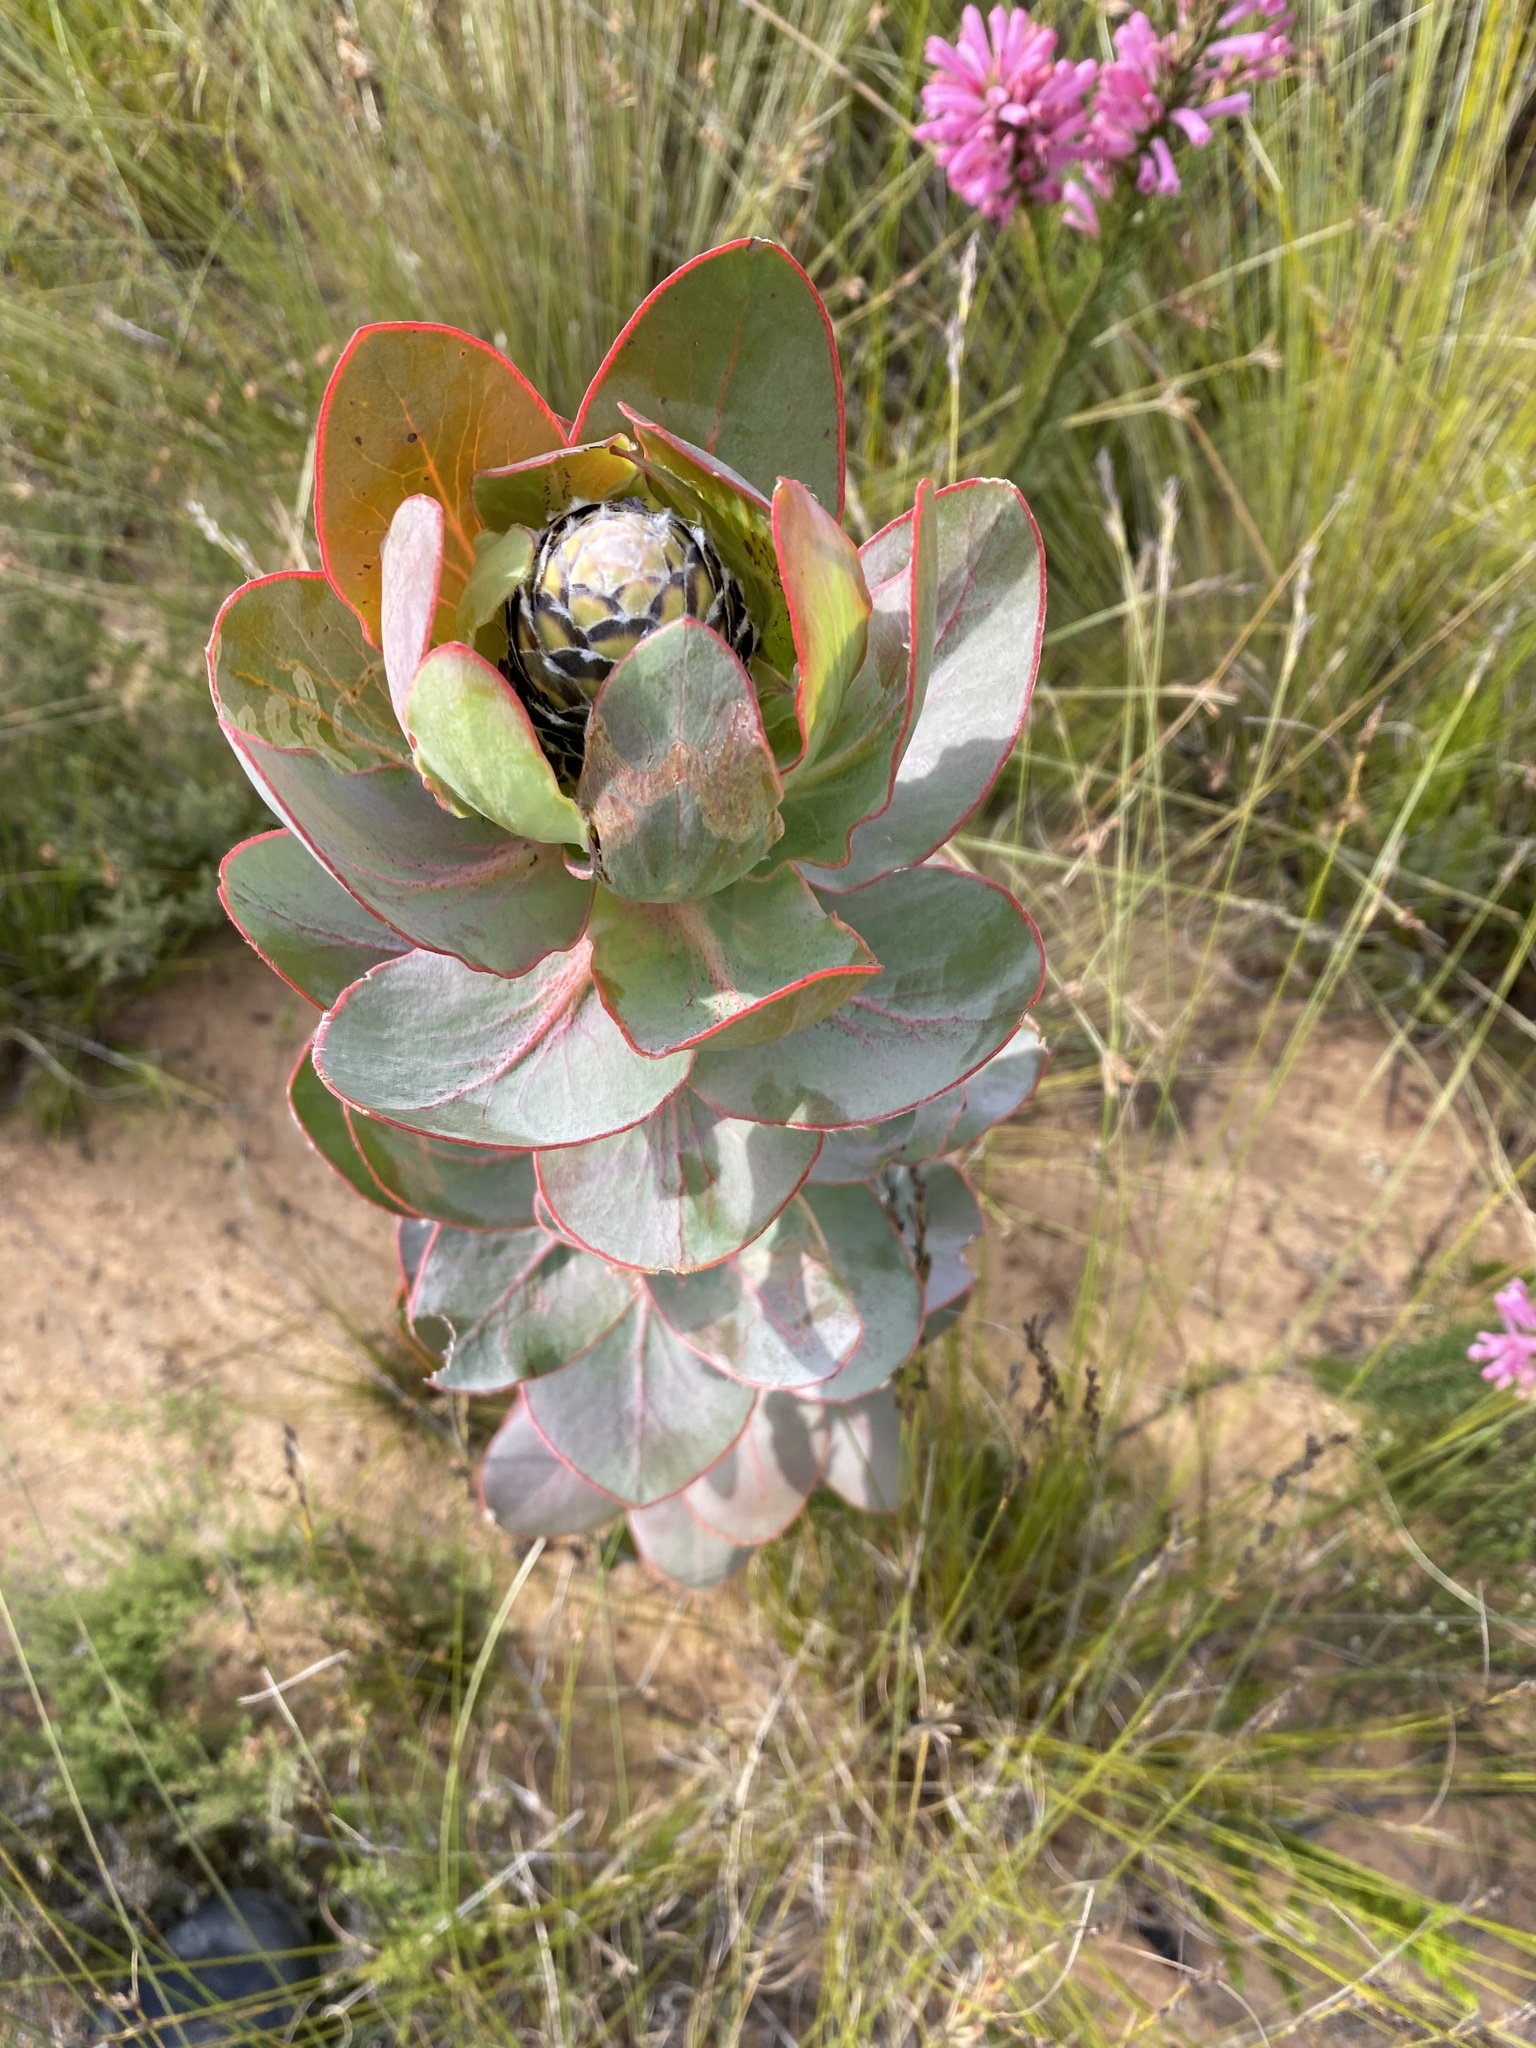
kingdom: Plantae
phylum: Tracheophyta
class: Magnoliopsida
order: Proteales
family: Proteaceae
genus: Protea
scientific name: Protea eximia
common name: Broad-leaved sugarbush
